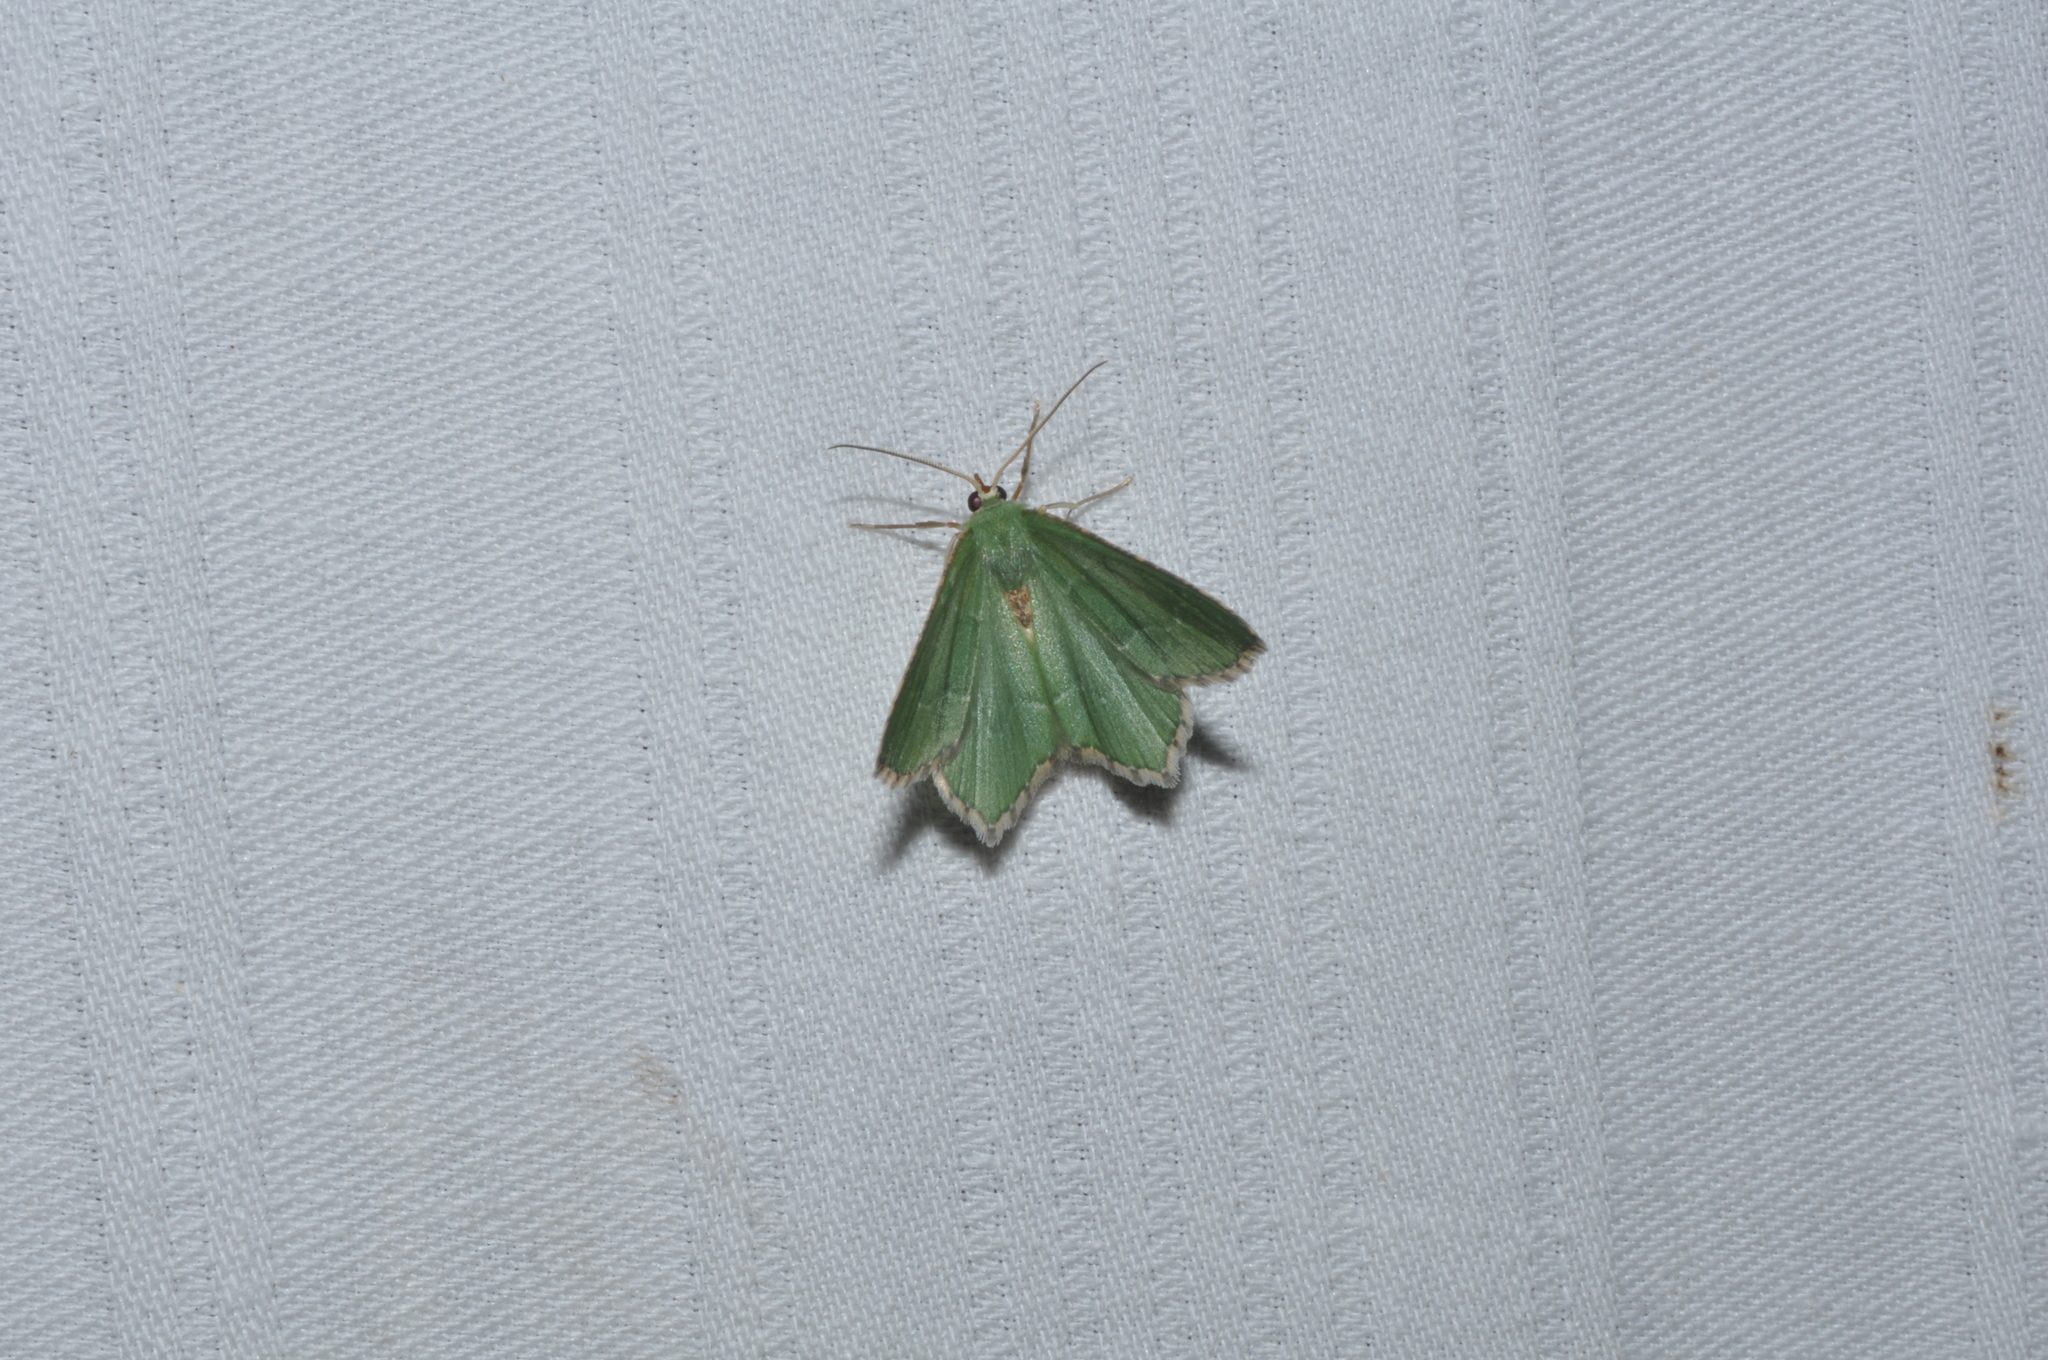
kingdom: Animalia
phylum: Arthropoda
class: Insecta
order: Lepidoptera
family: Geometridae
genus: Hemithea
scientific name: Hemithea aestivaria
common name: Common emerald
